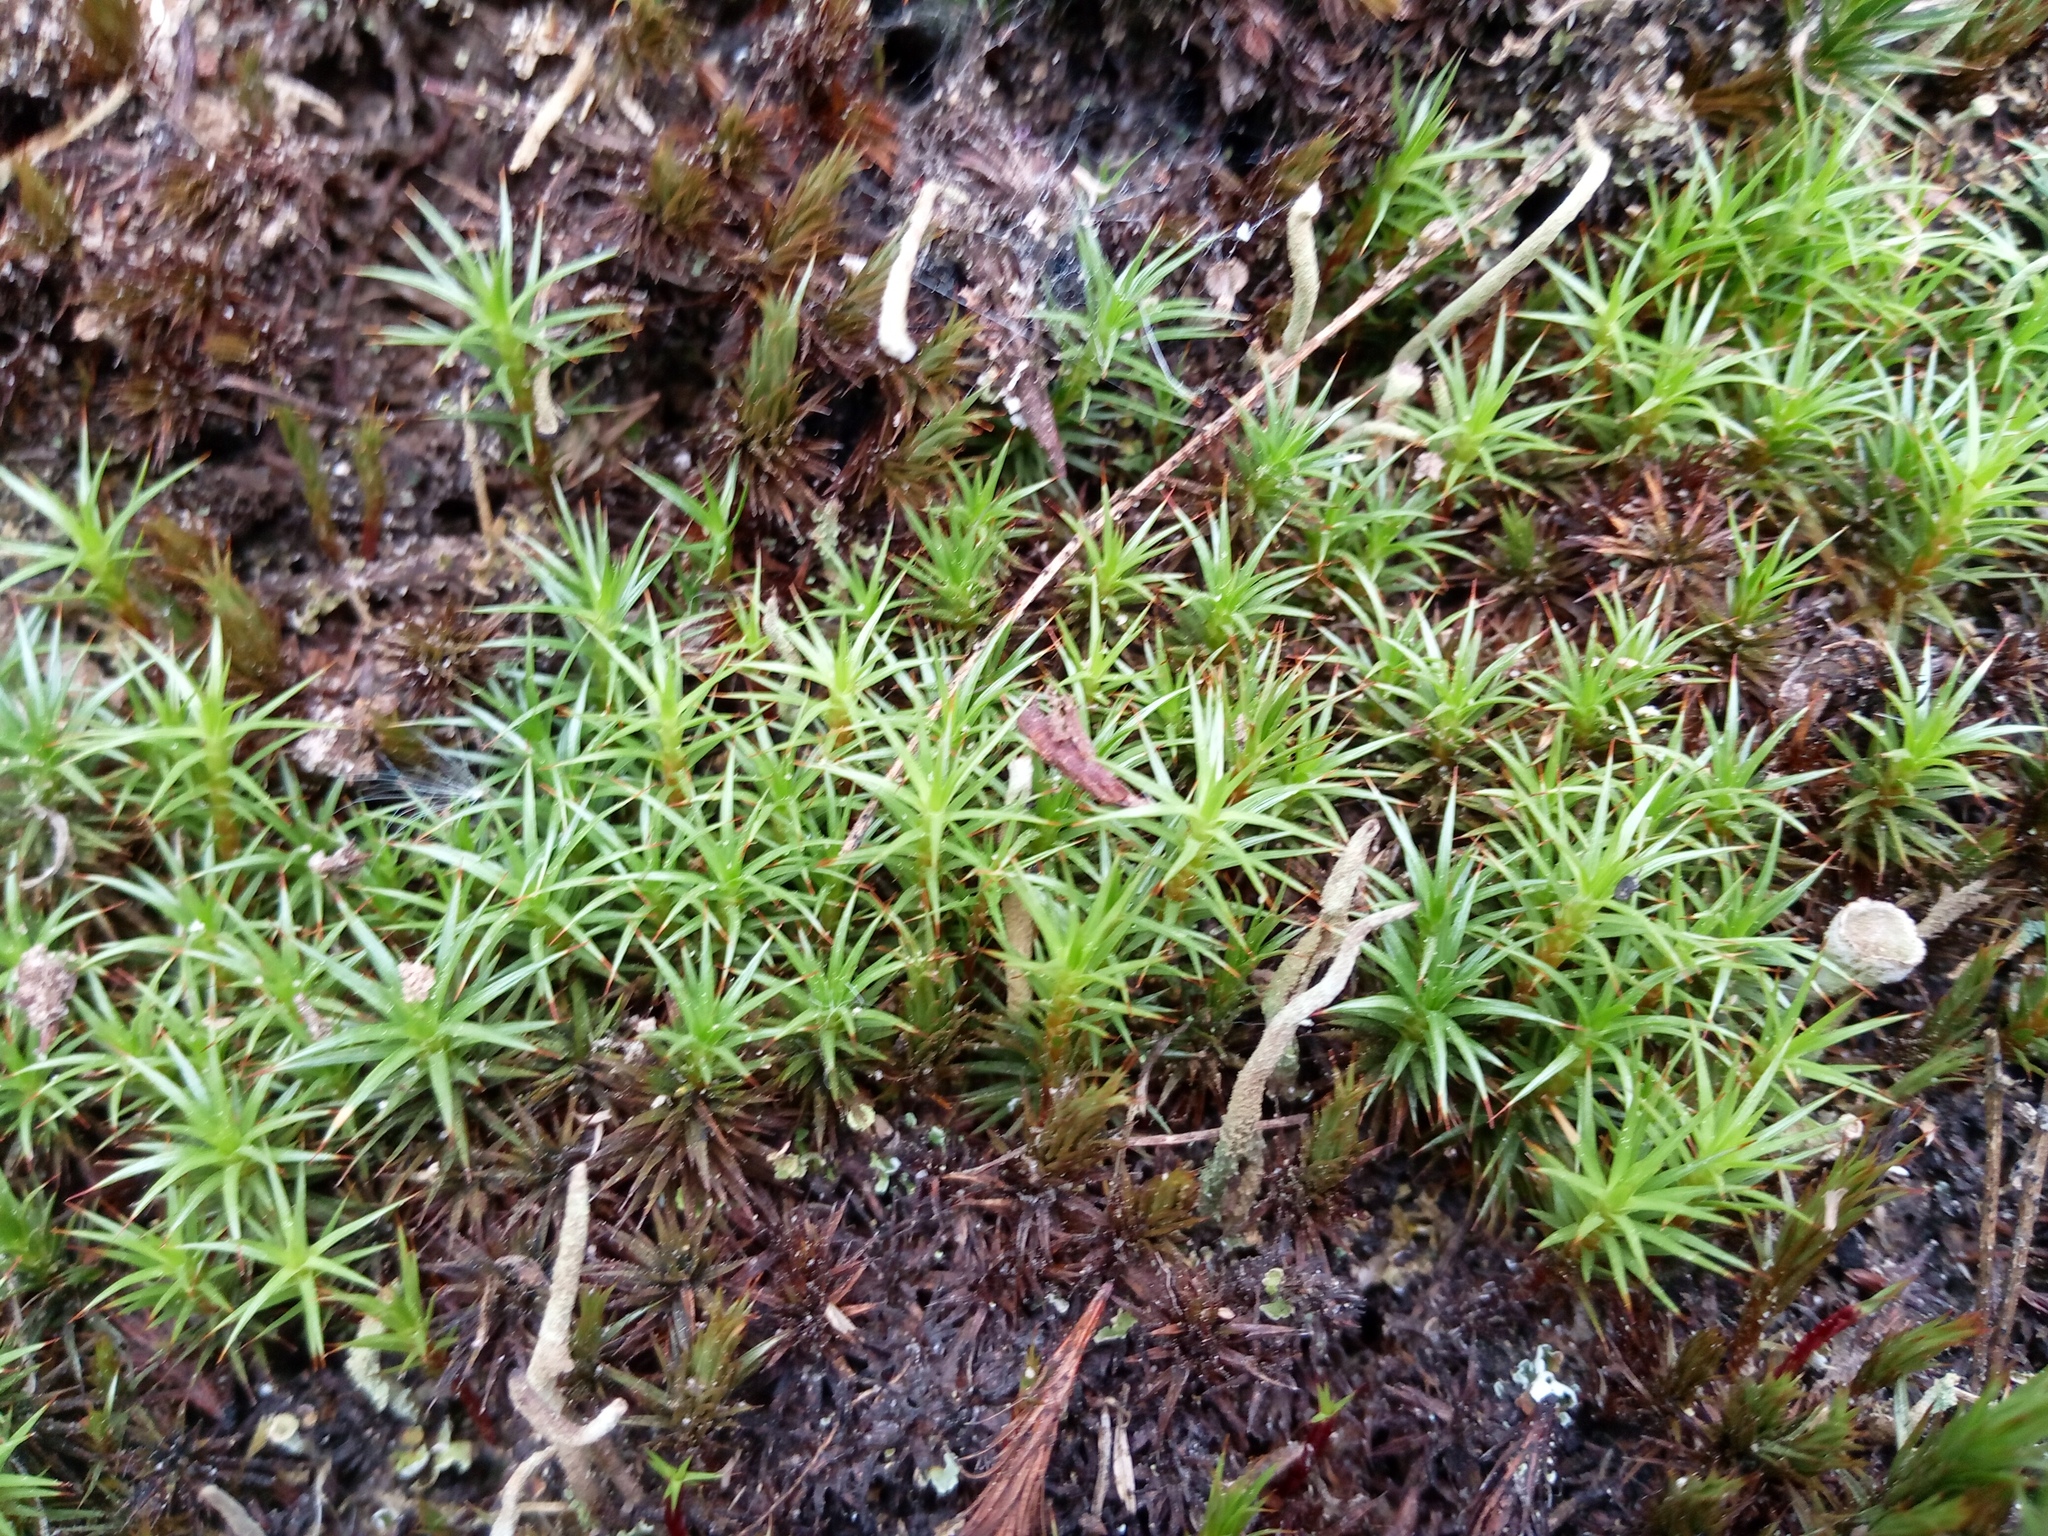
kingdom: Plantae
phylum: Bryophyta
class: Polytrichopsida
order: Polytrichales
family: Polytrichaceae
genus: Polytrichum
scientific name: Polytrichum juniperinum
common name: Juniper haircap moss
